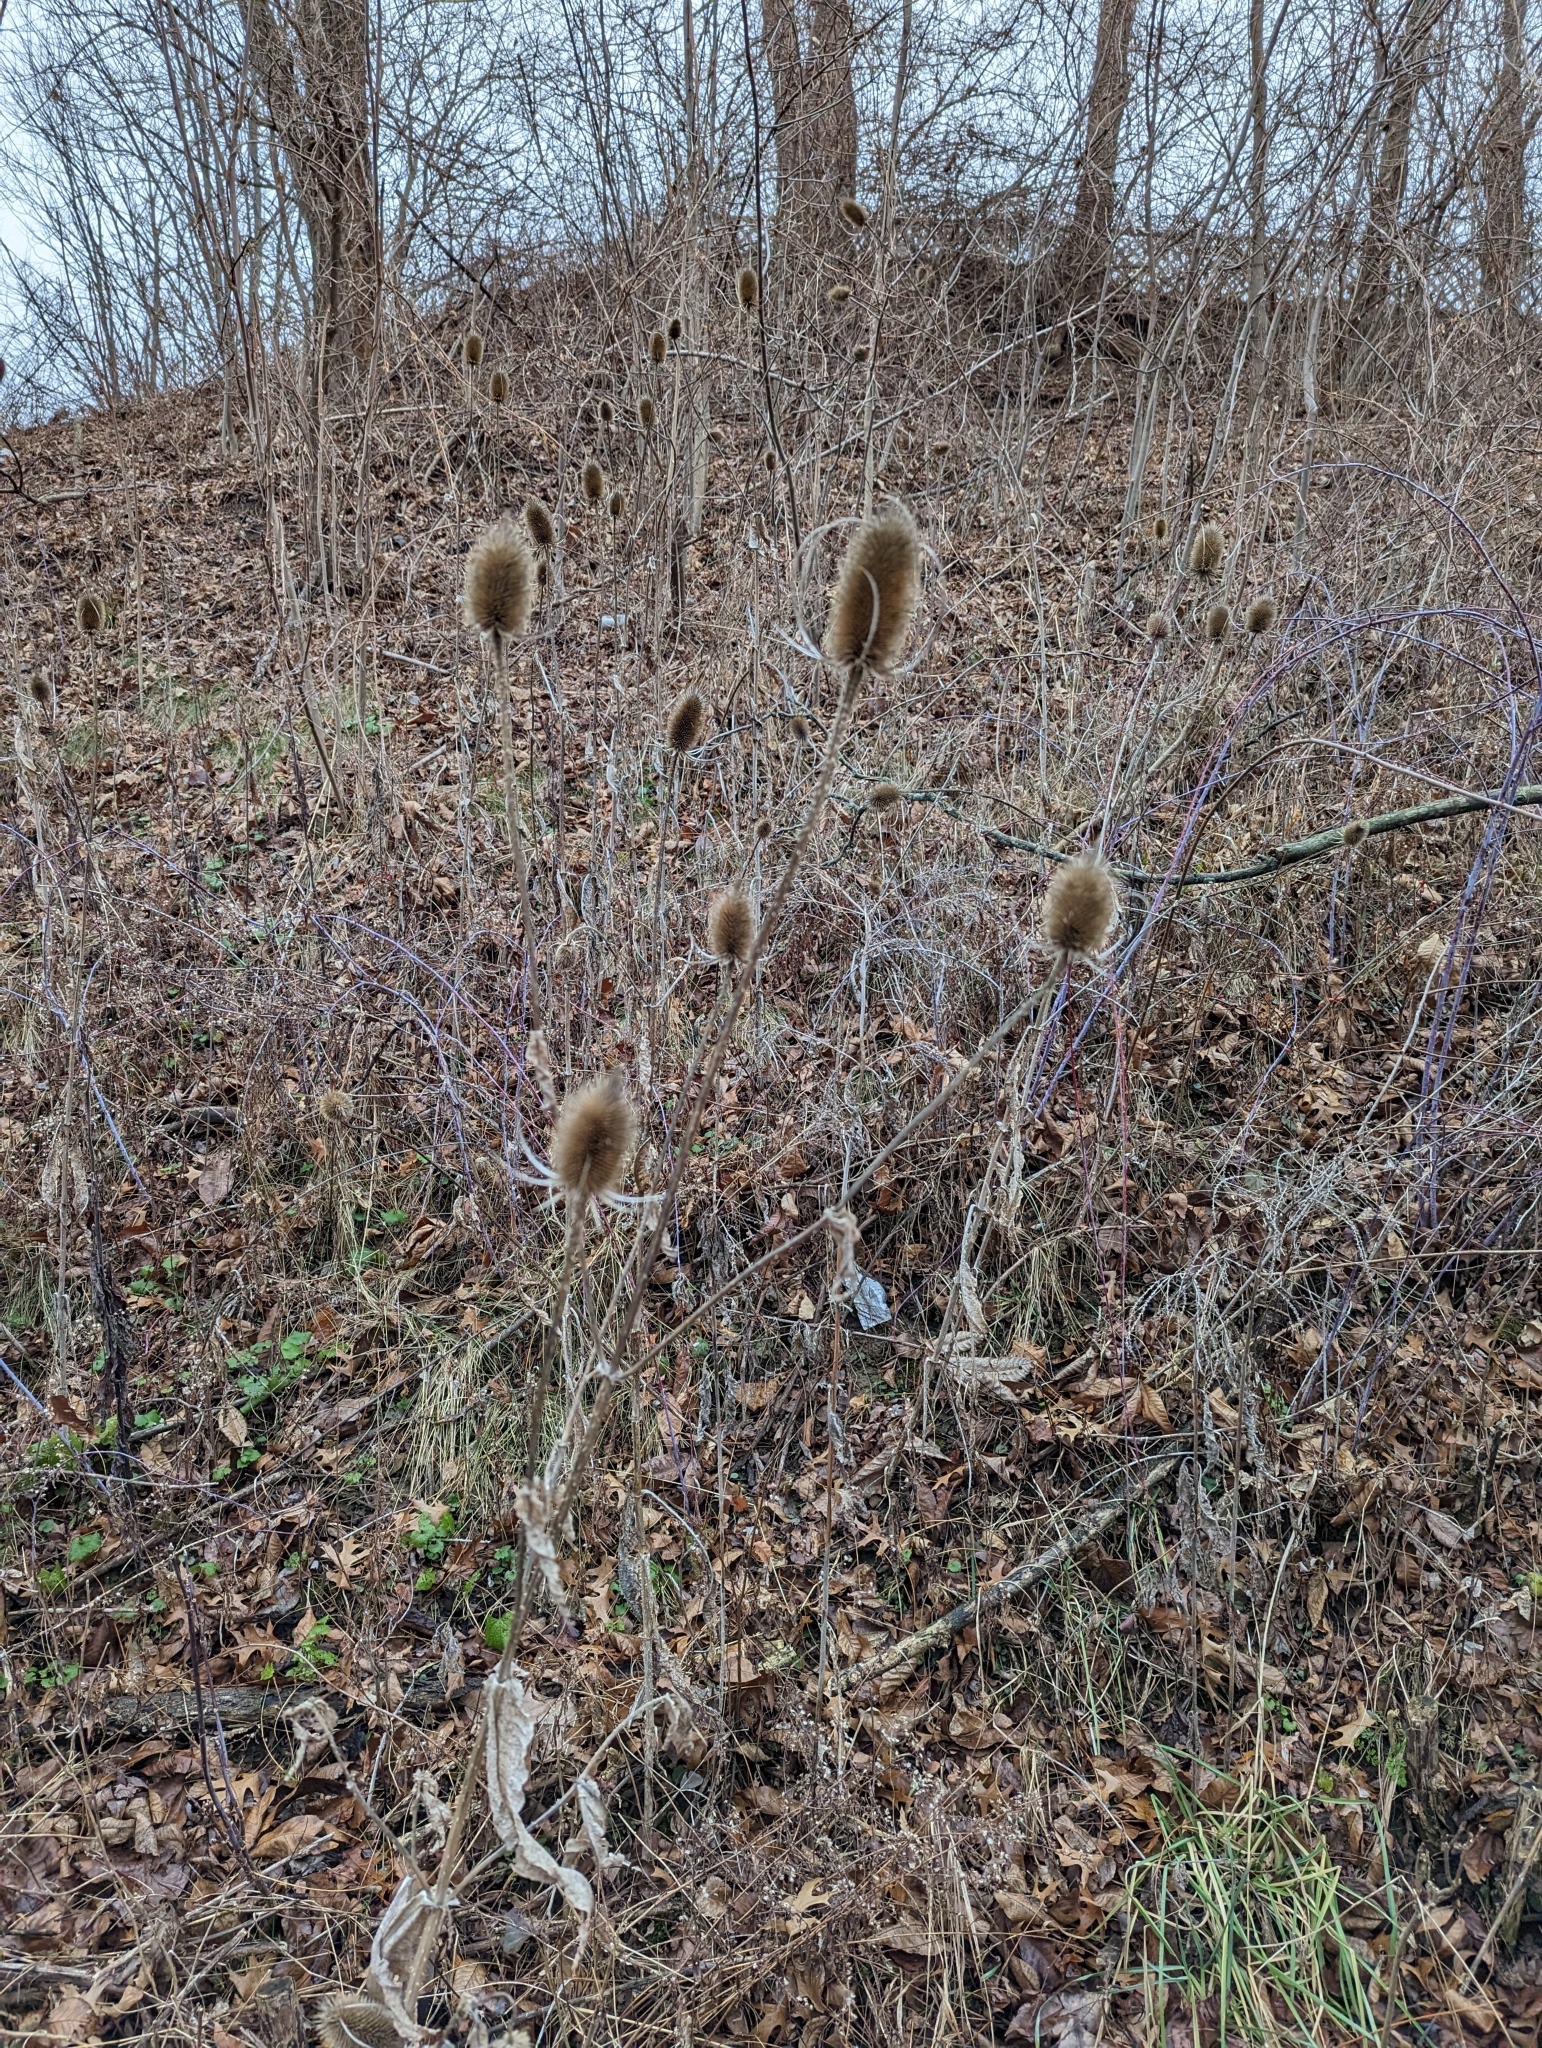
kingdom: Plantae
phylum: Tracheophyta
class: Magnoliopsida
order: Dipsacales
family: Caprifoliaceae
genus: Dipsacus
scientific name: Dipsacus fullonum
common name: Teasel
